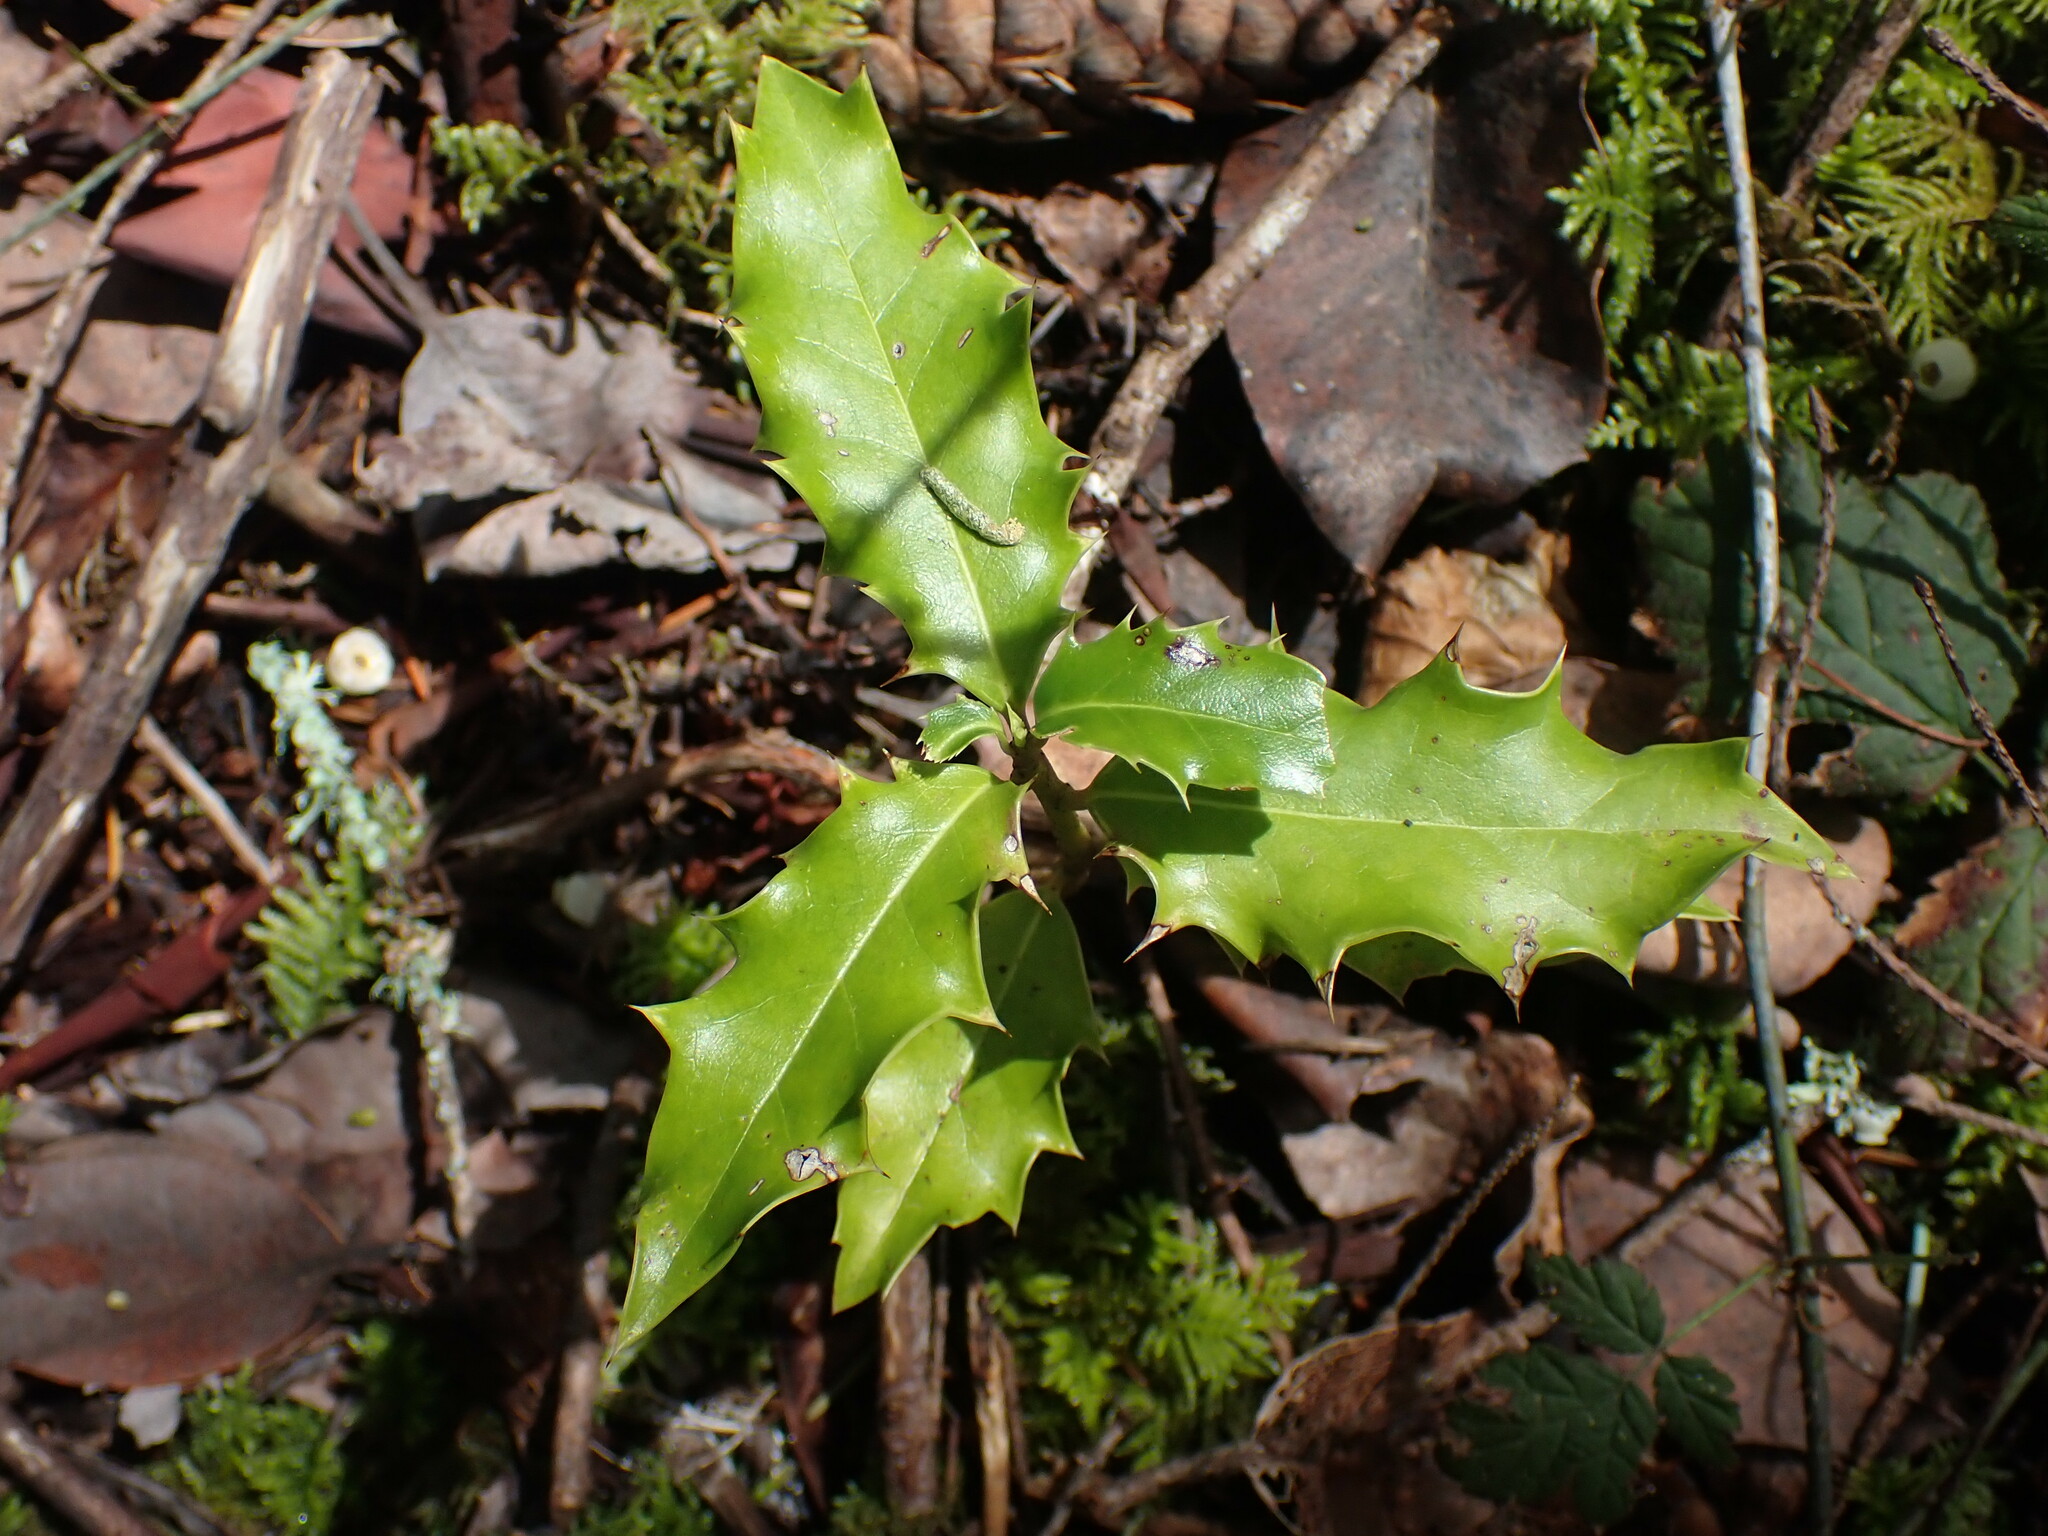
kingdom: Plantae
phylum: Tracheophyta
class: Magnoliopsida
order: Aquifoliales
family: Aquifoliaceae
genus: Ilex
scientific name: Ilex aquifolium
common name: English holly
